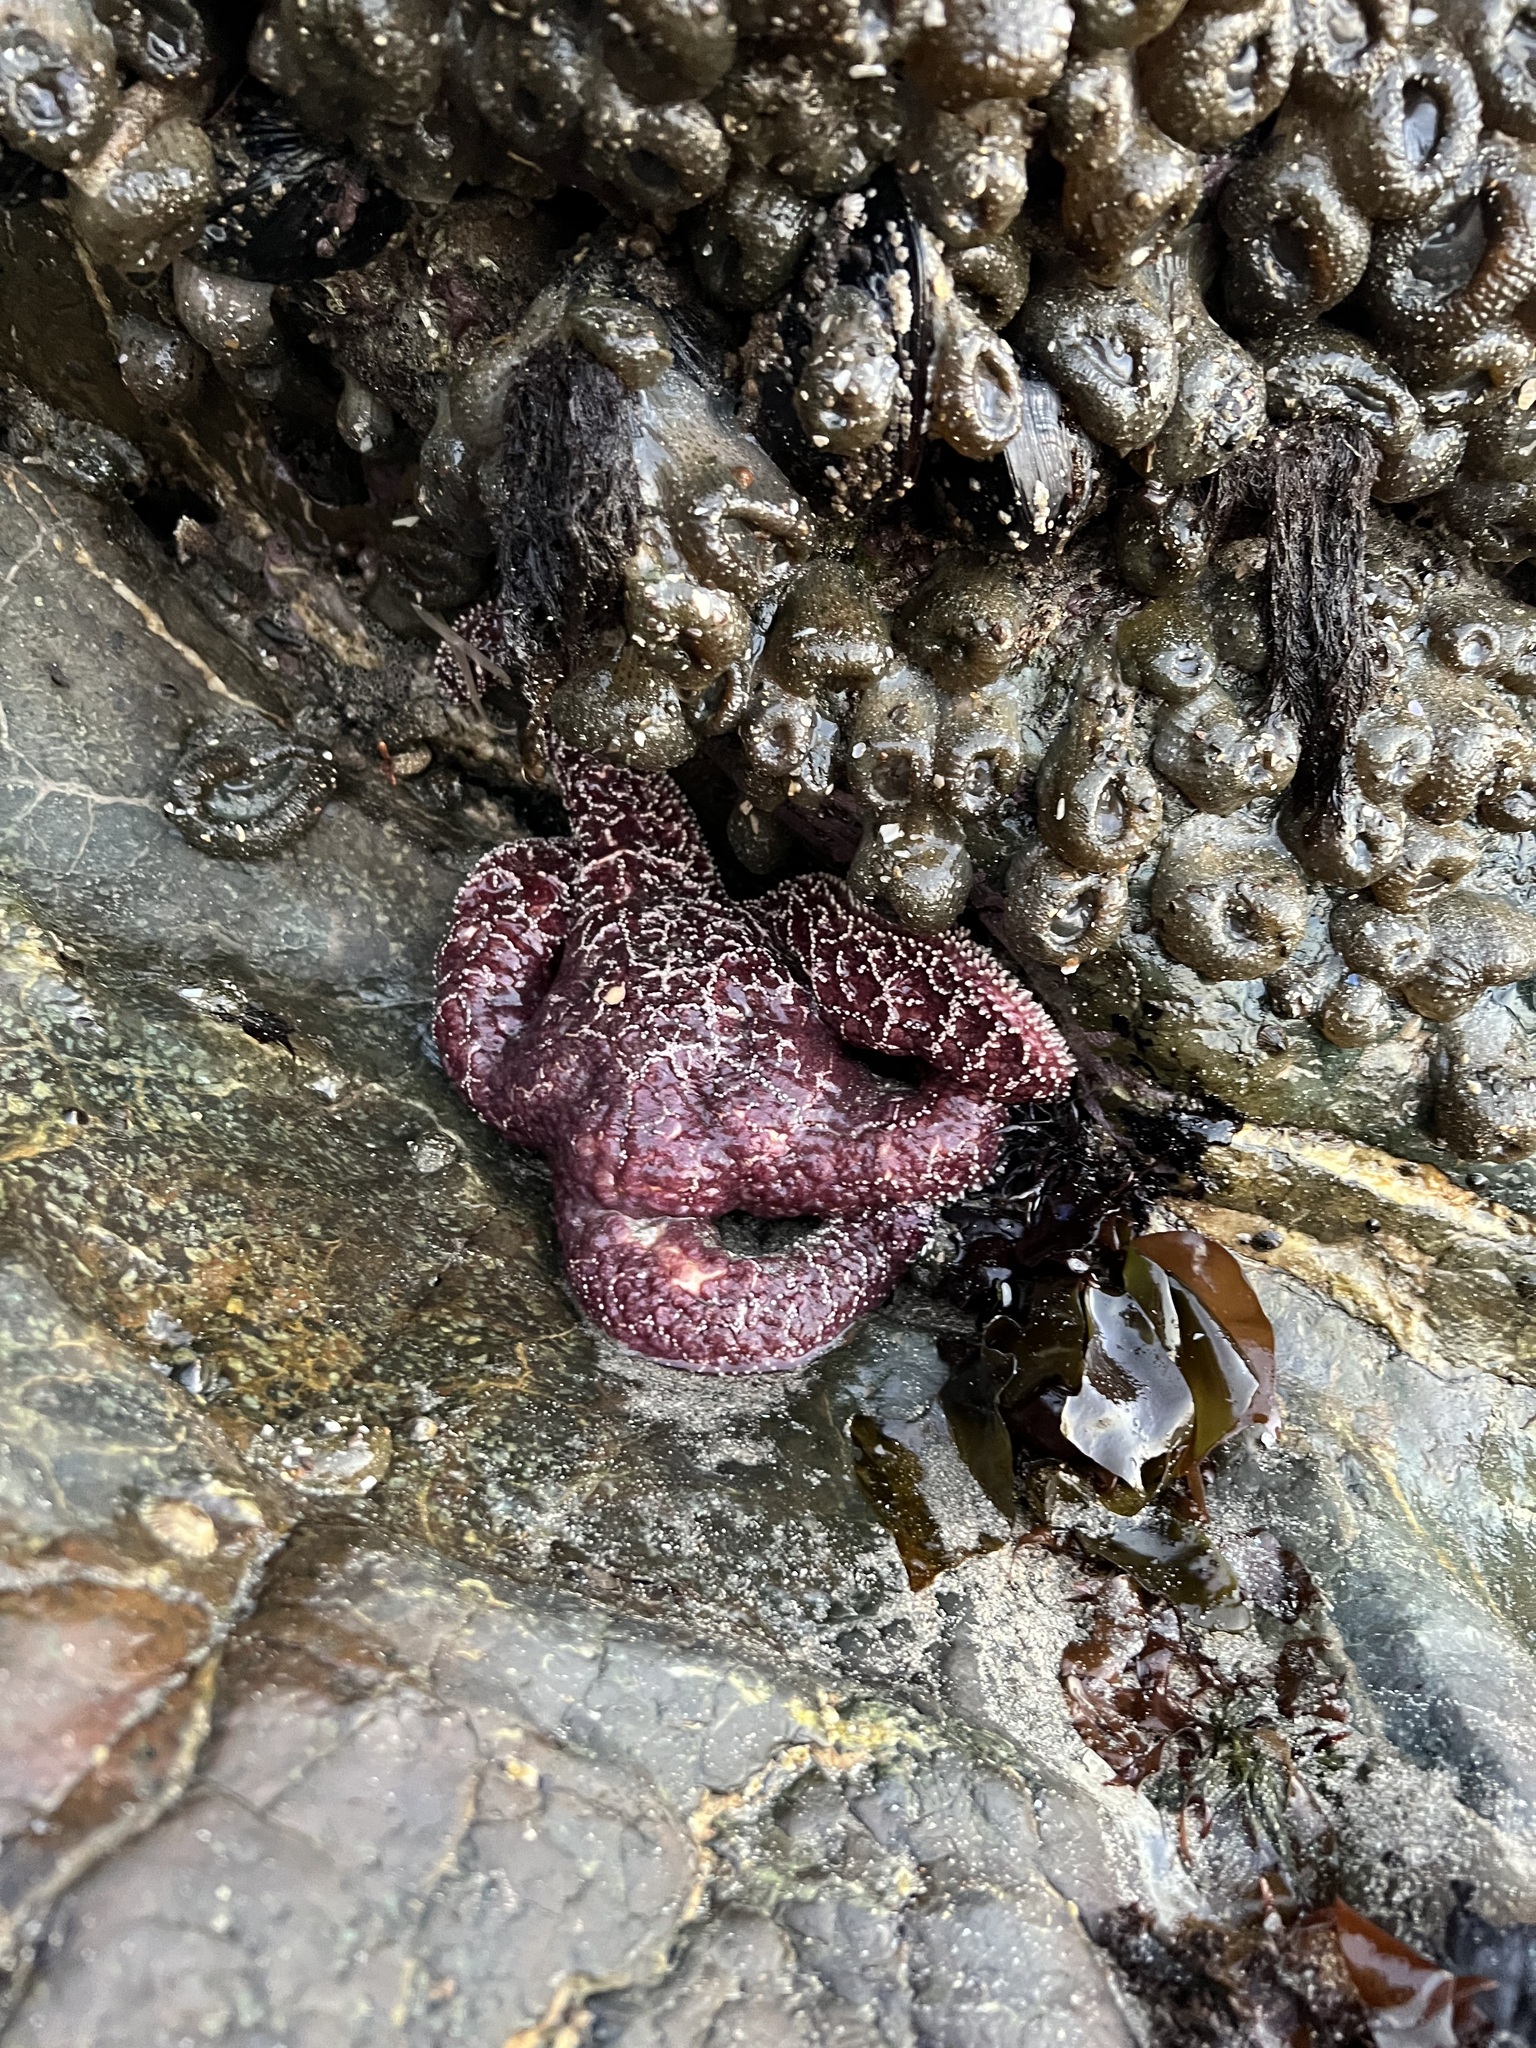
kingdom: Animalia
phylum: Echinodermata
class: Asteroidea
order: Forcipulatida
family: Asteriidae
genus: Pisaster
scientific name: Pisaster ochraceus
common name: Ochre stars
